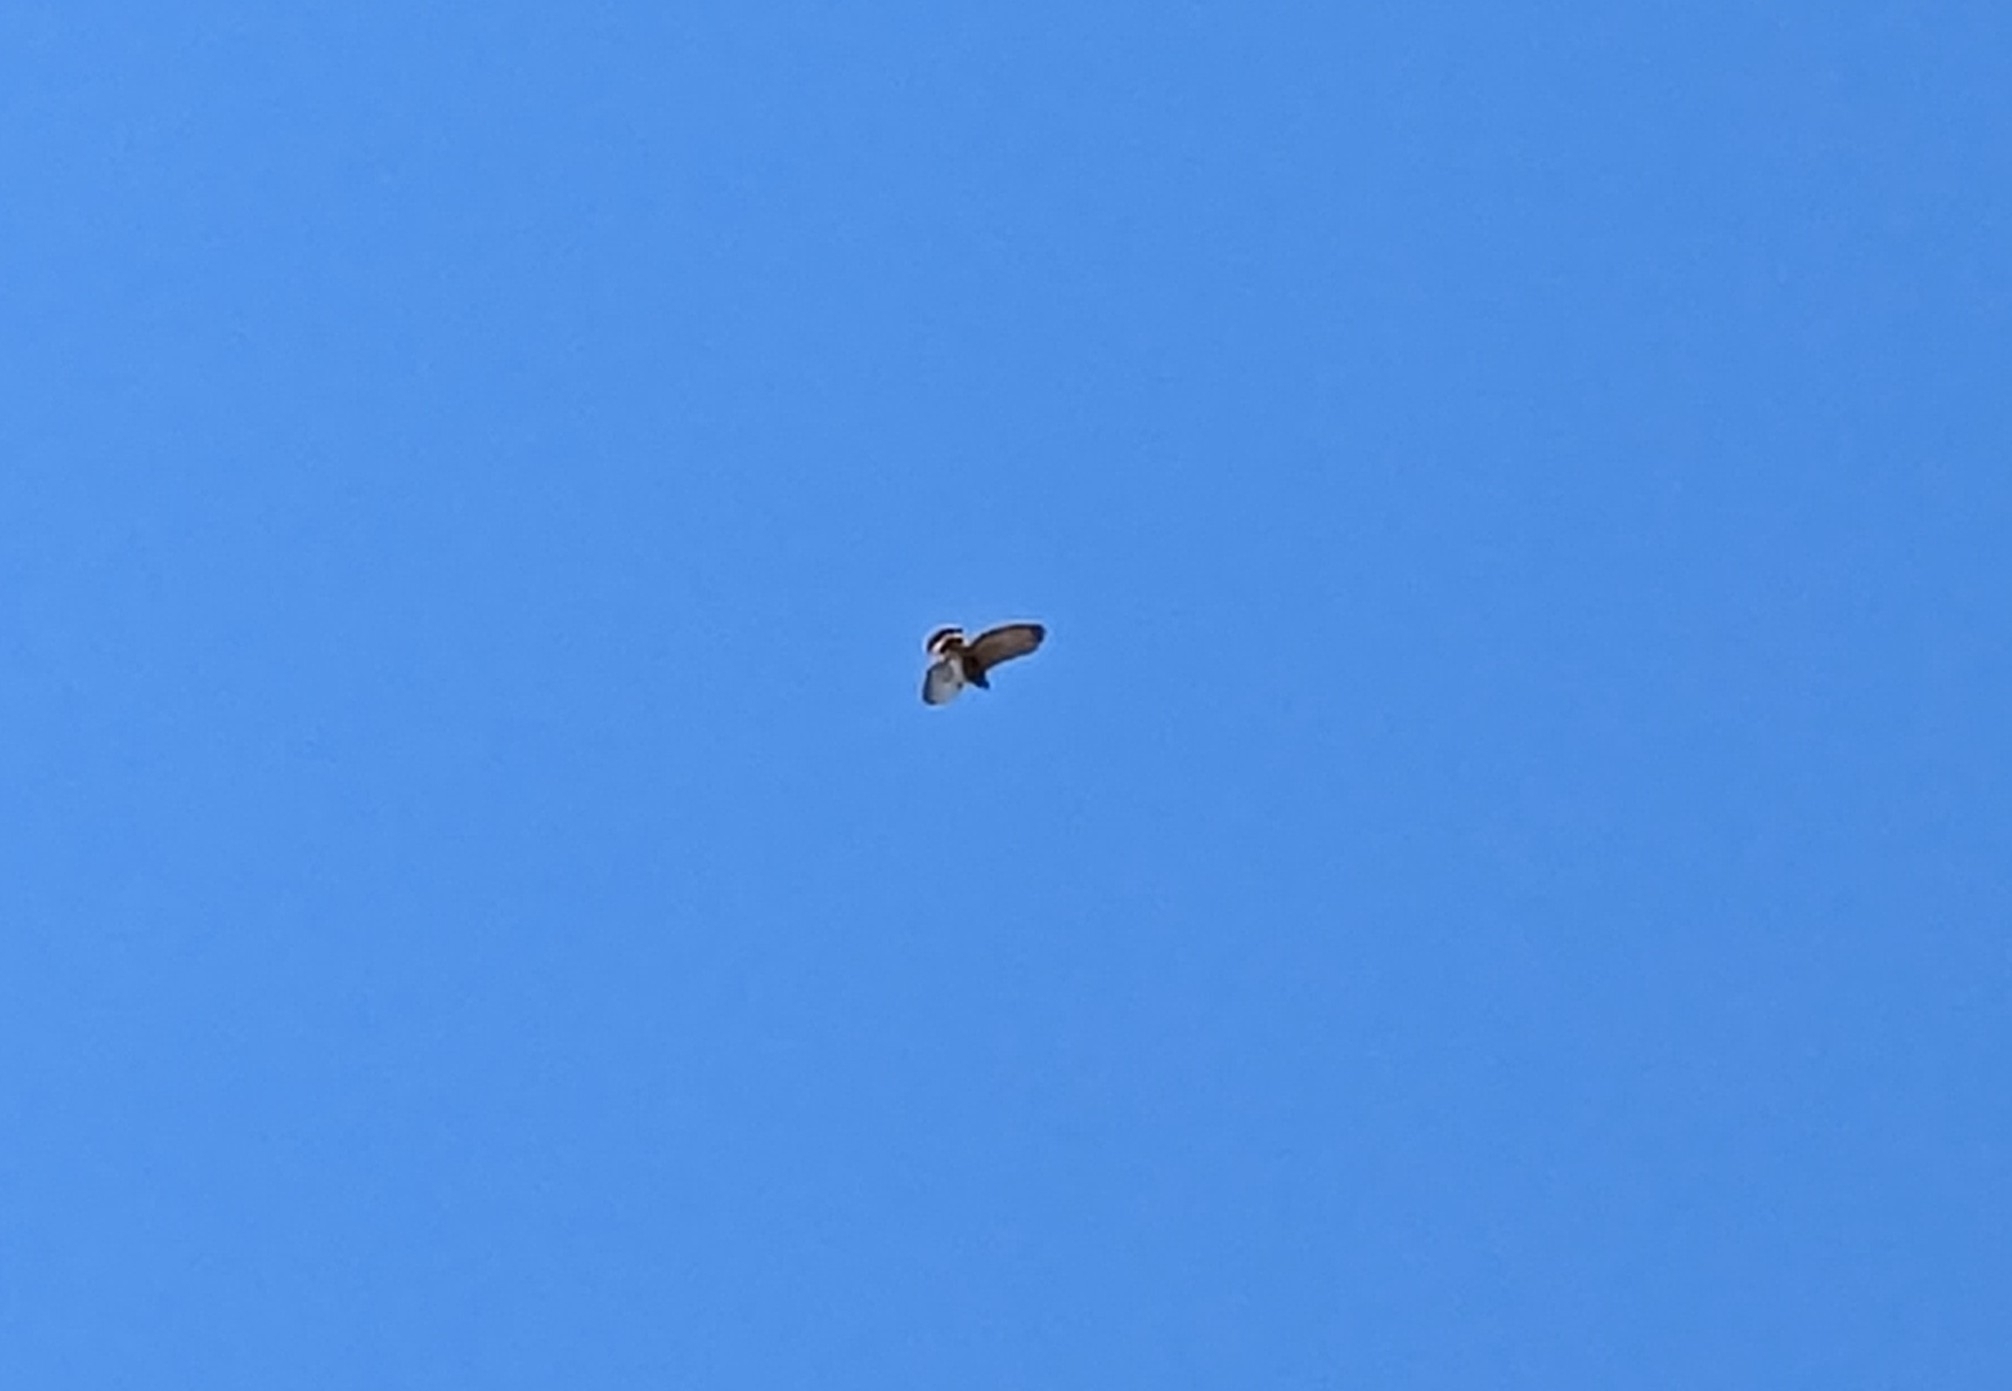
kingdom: Animalia
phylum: Chordata
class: Aves
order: Accipitriformes
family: Accipitridae
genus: Buteo
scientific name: Buteo platypterus
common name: Broad-winged hawk
